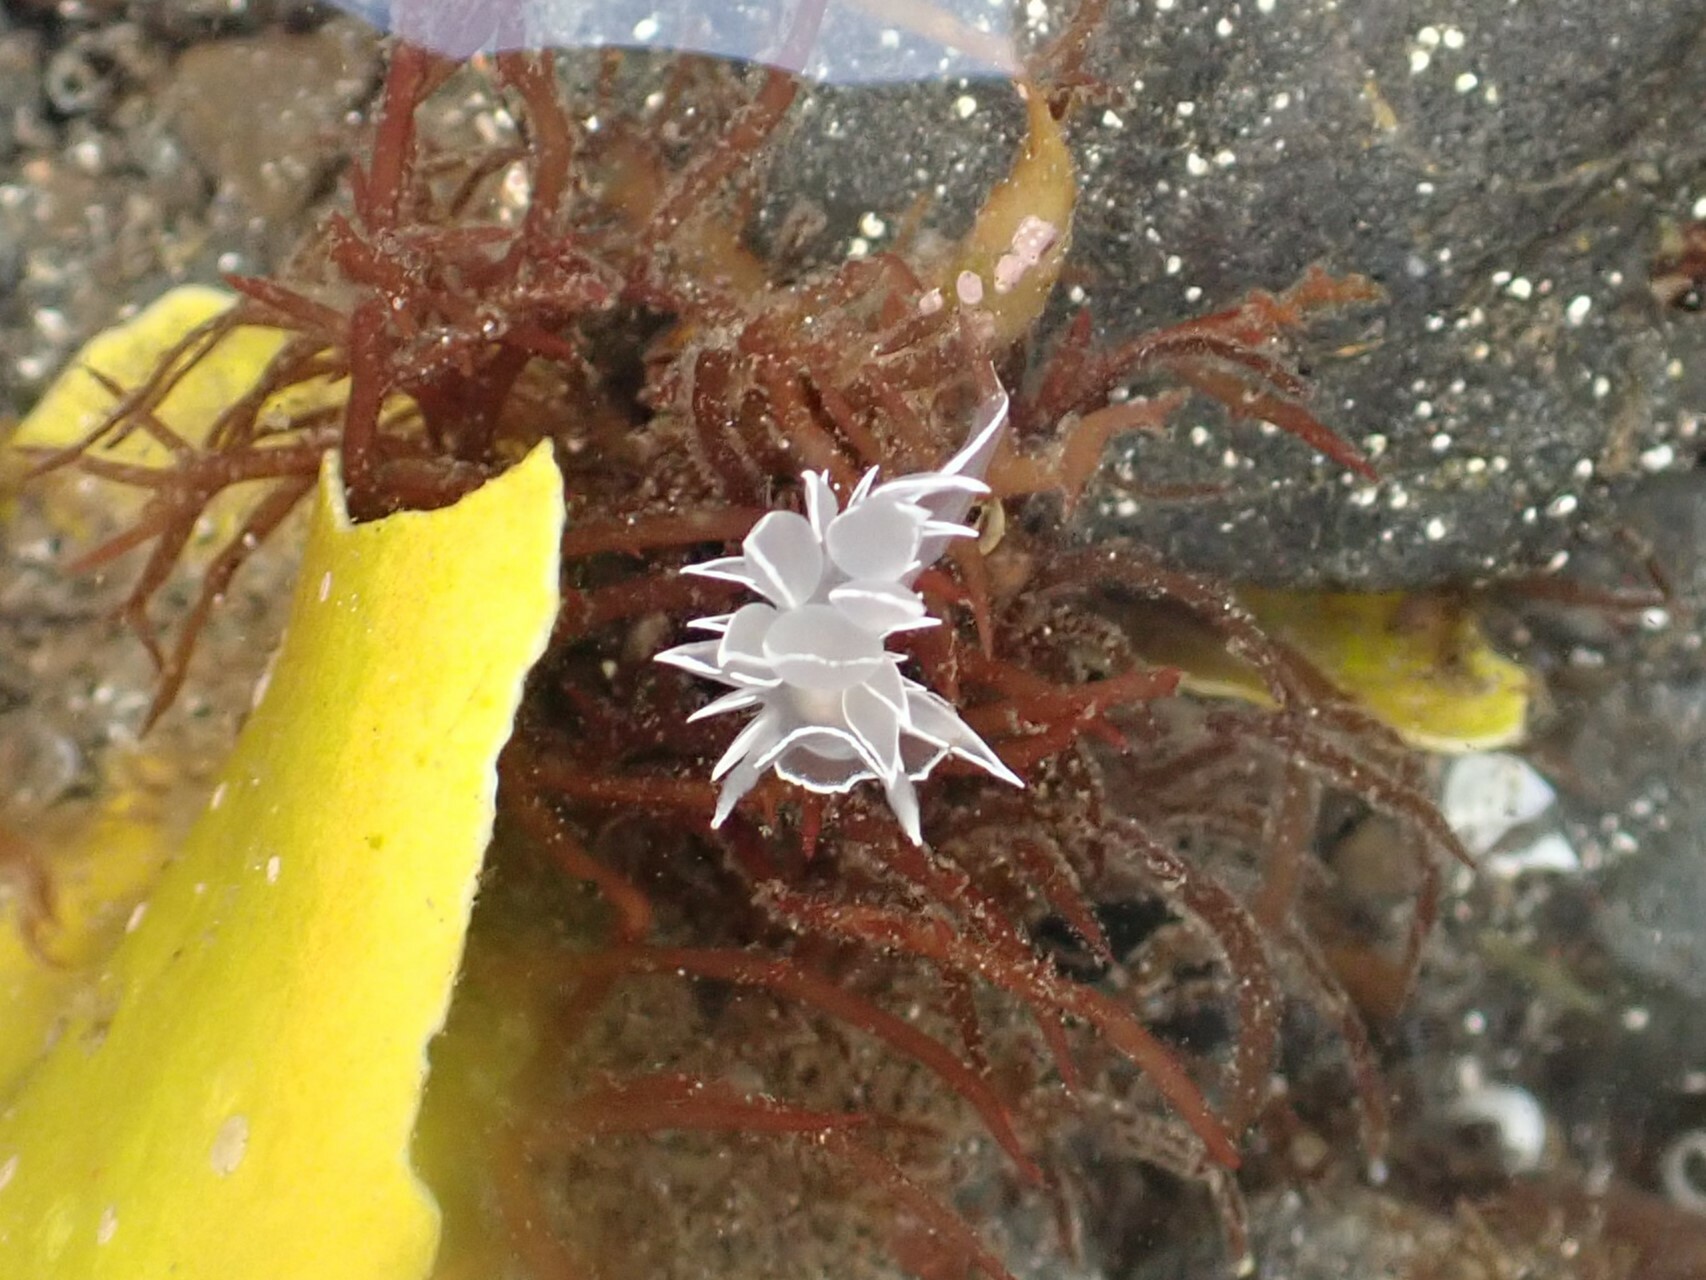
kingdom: Animalia
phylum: Mollusca
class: Gastropoda
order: Nudibranchia
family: Dironidae
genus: Dirona
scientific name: Dirona albolineata
